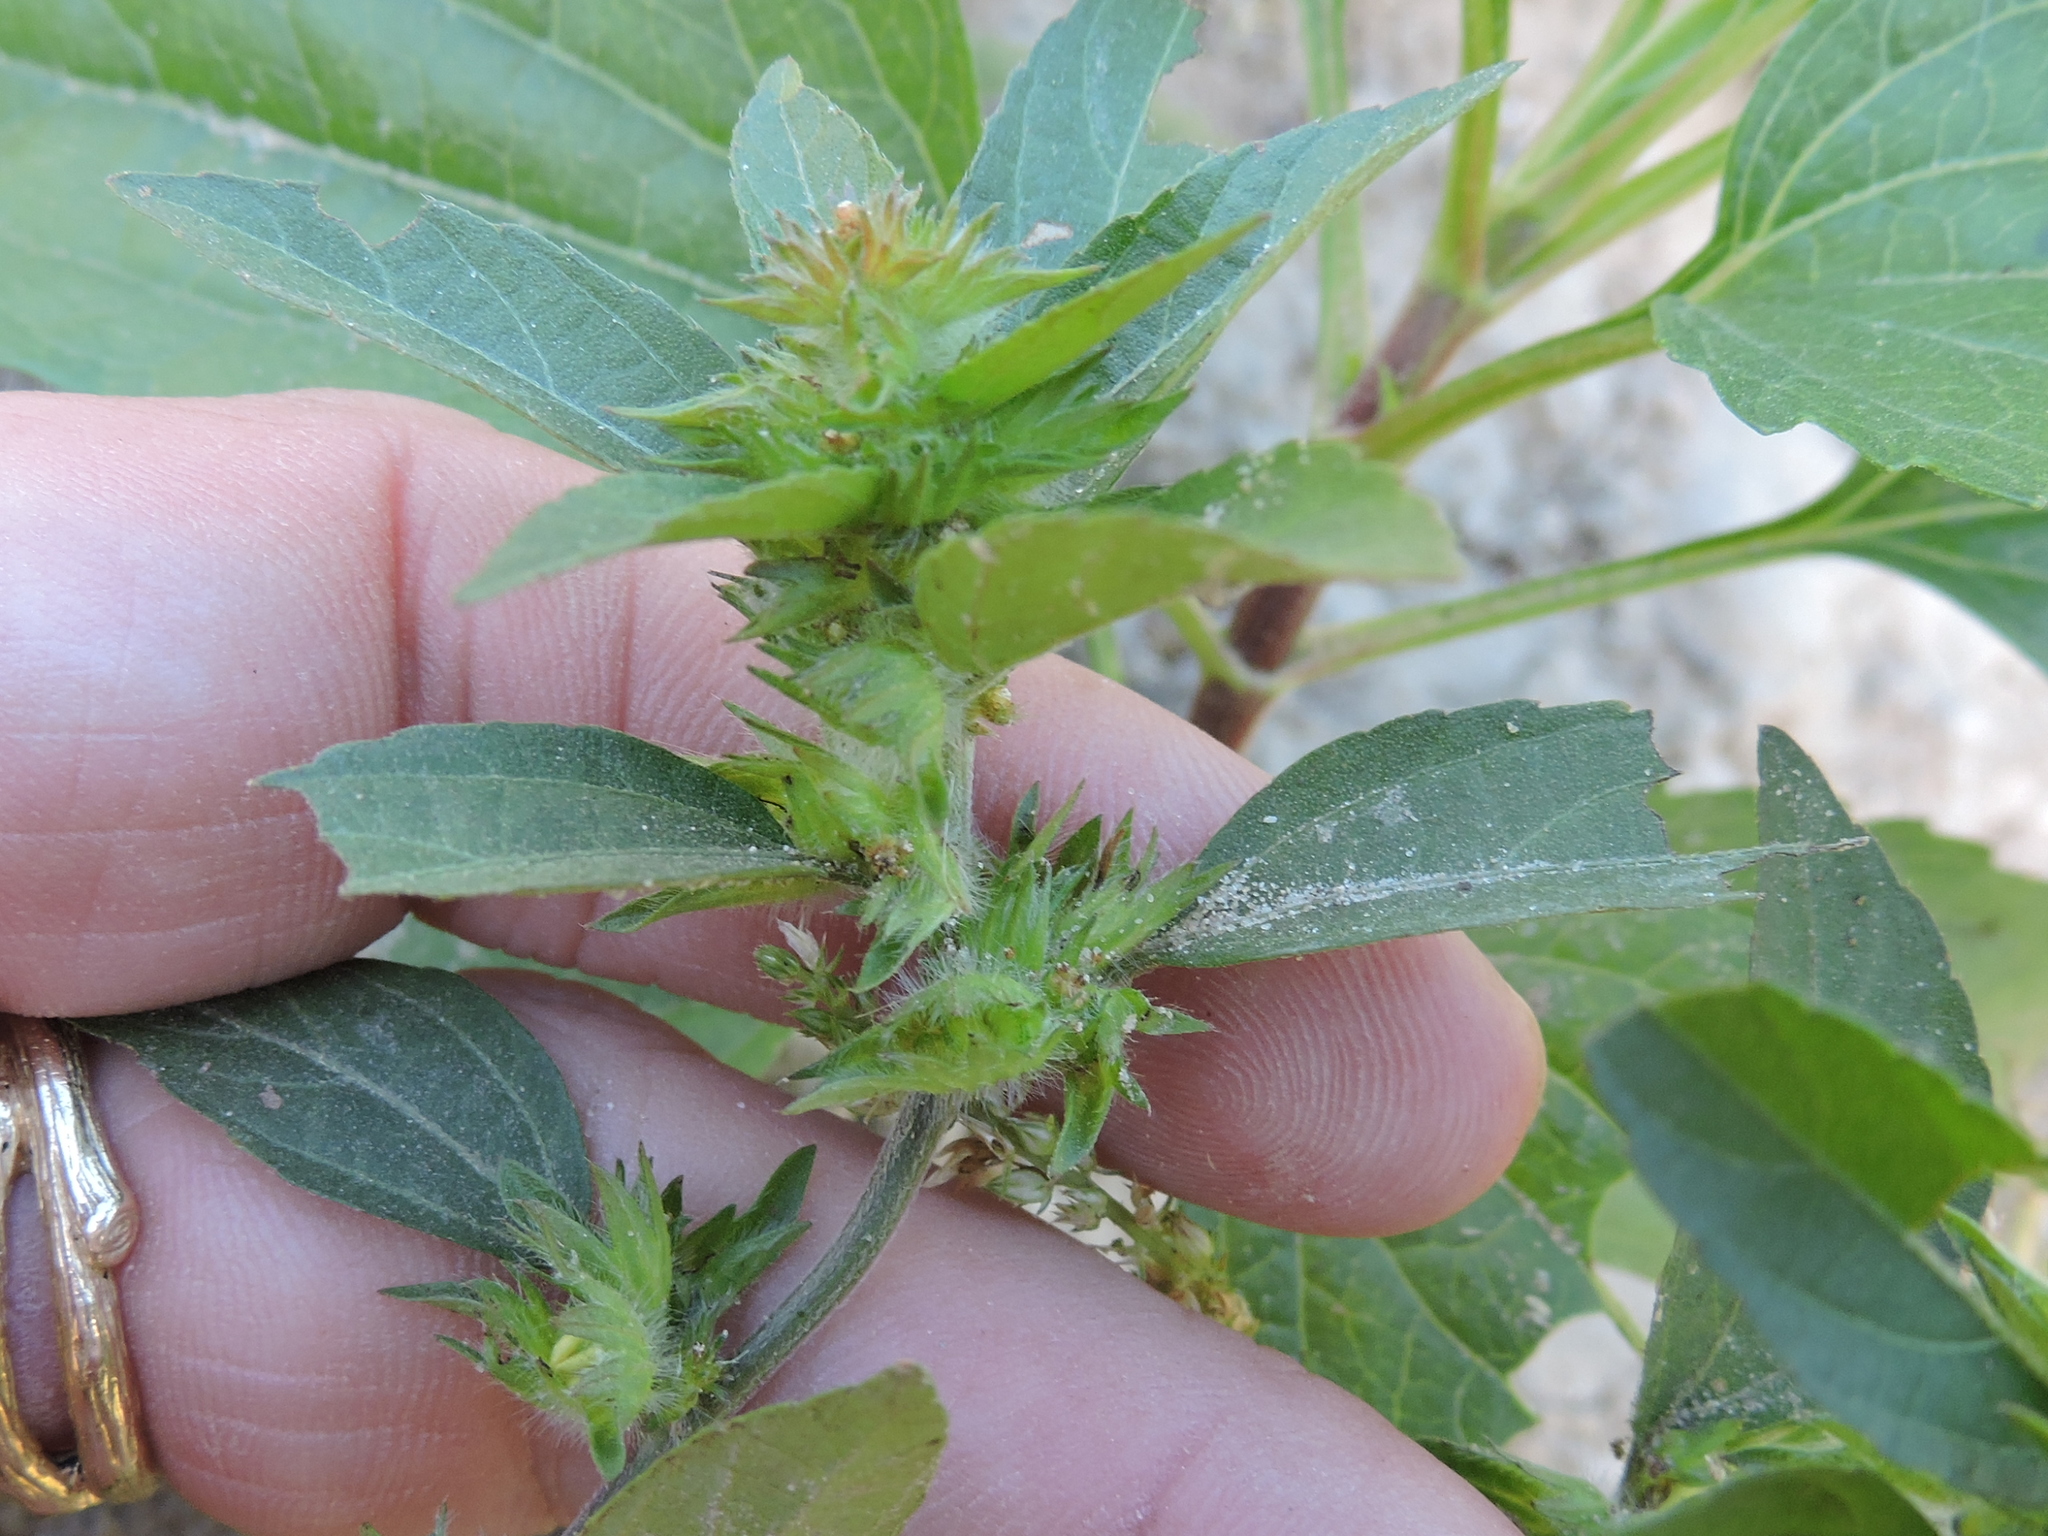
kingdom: Plantae
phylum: Tracheophyta
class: Magnoliopsida
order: Malpighiales
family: Euphorbiaceae
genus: Acalypha
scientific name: Acalypha monococca
